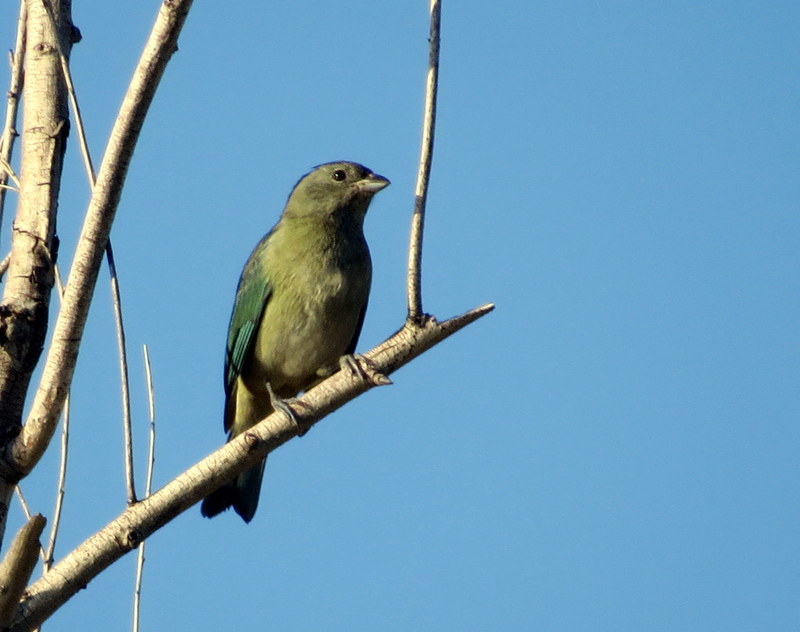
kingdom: Animalia
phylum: Chordata
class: Aves
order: Passeriformes
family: Thraupidae
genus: Thraupis
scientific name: Thraupis sayaca
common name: Sayaca tanager
